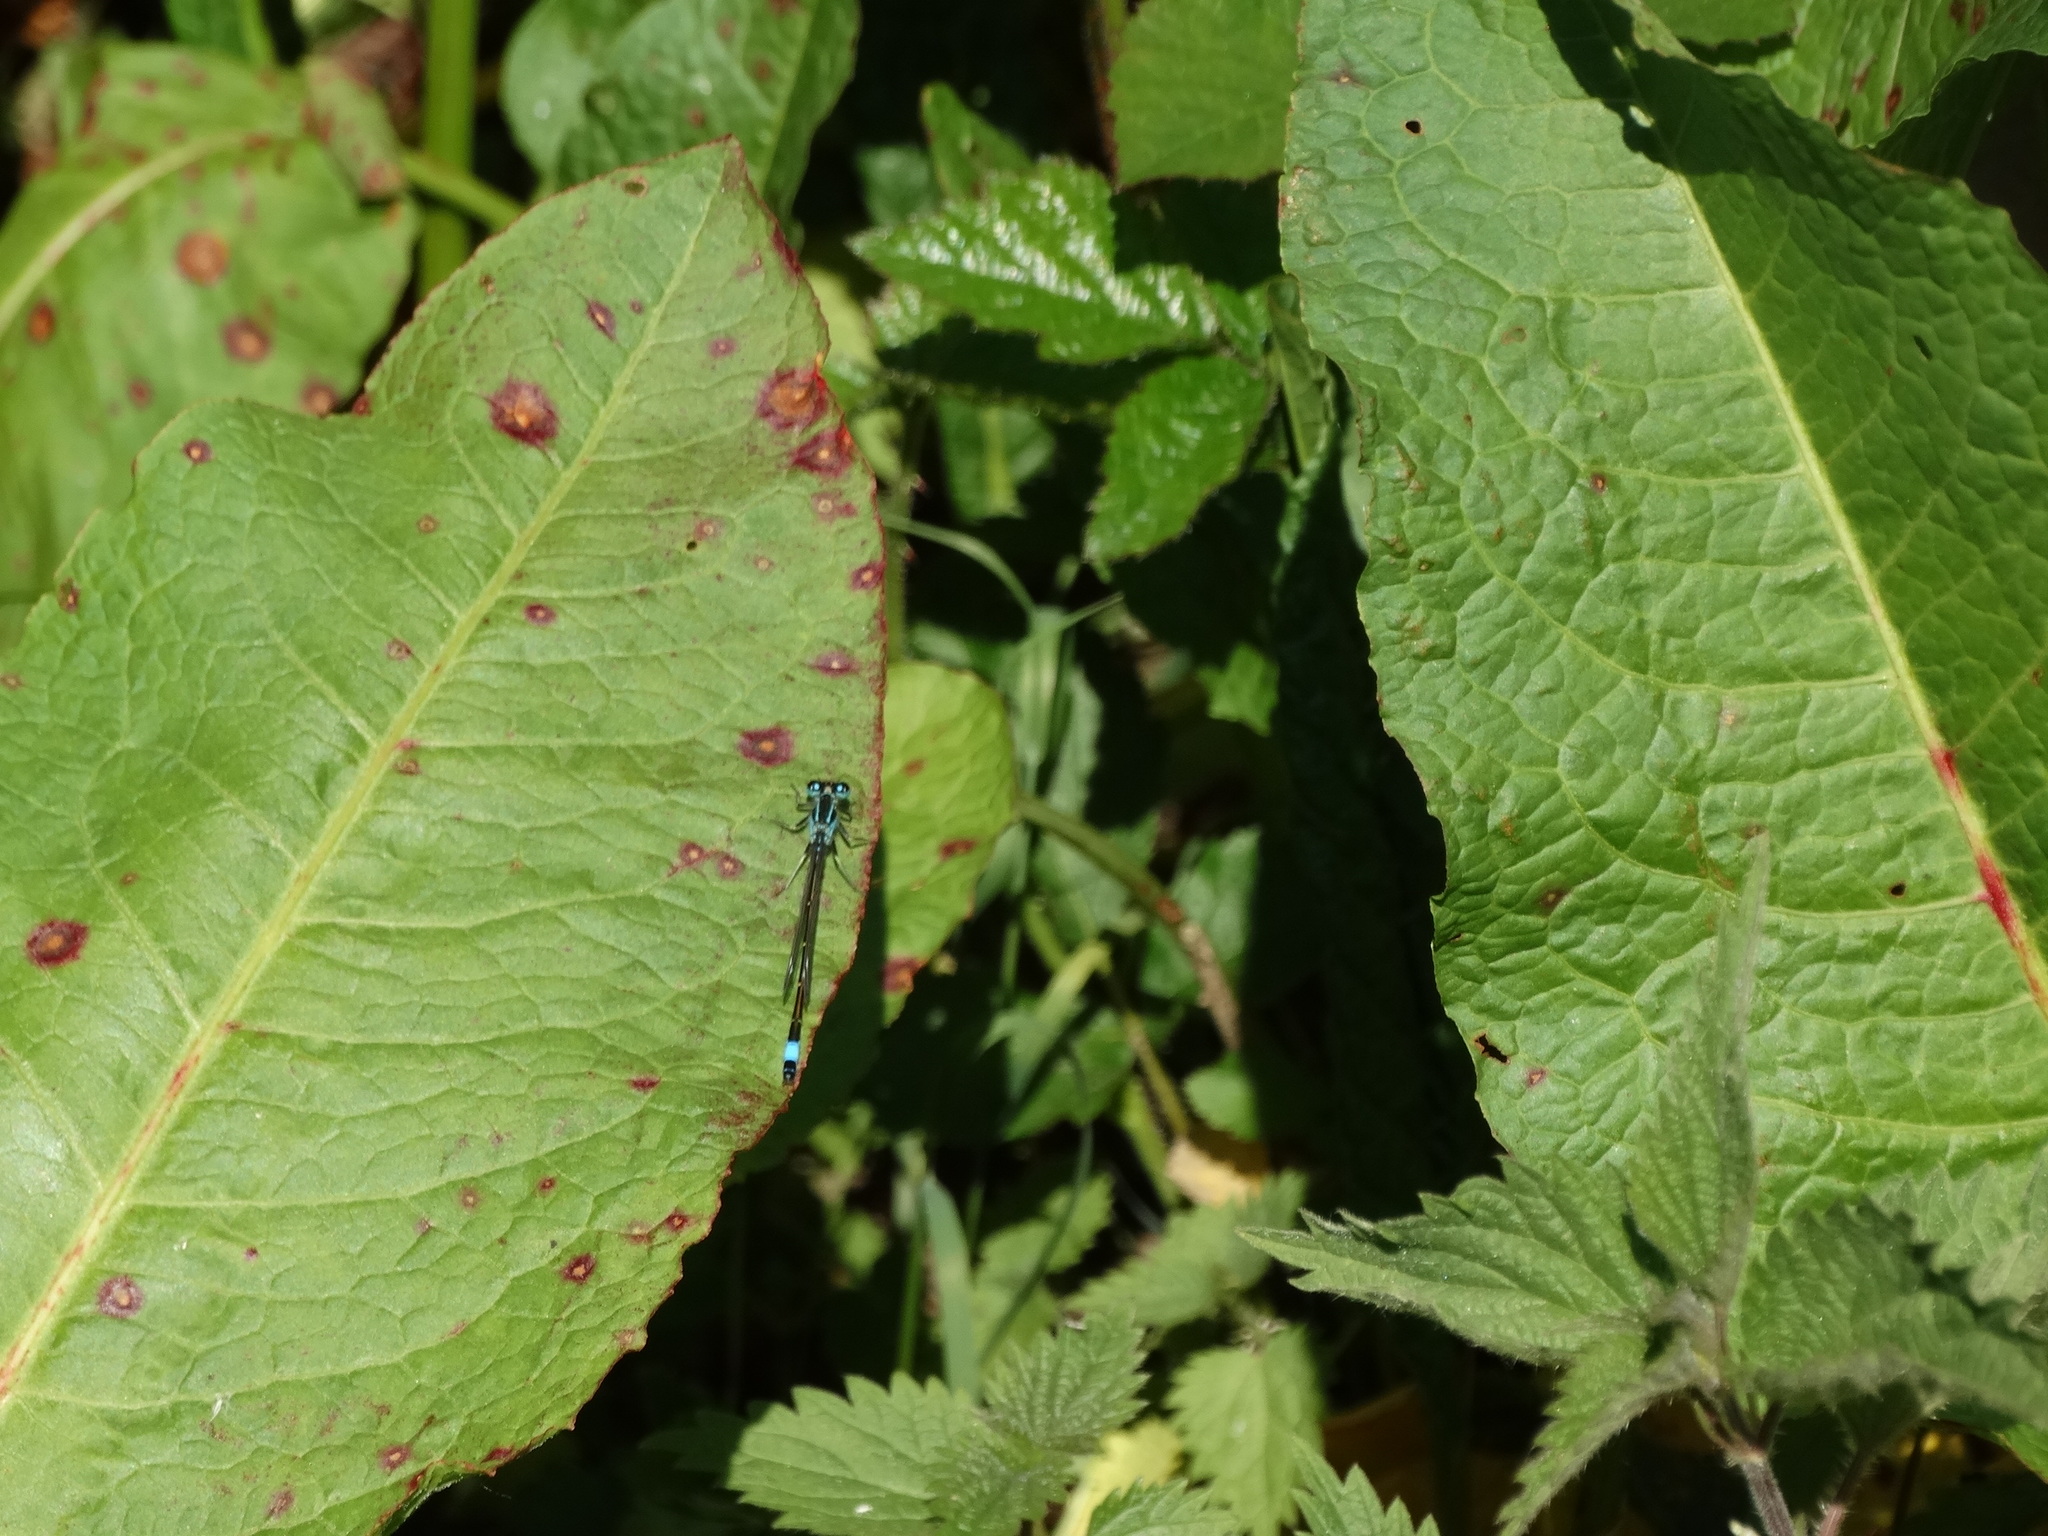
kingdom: Animalia
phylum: Arthropoda
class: Insecta
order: Odonata
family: Coenagrionidae
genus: Ischnura
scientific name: Ischnura elegans
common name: Blue-tailed damselfly
